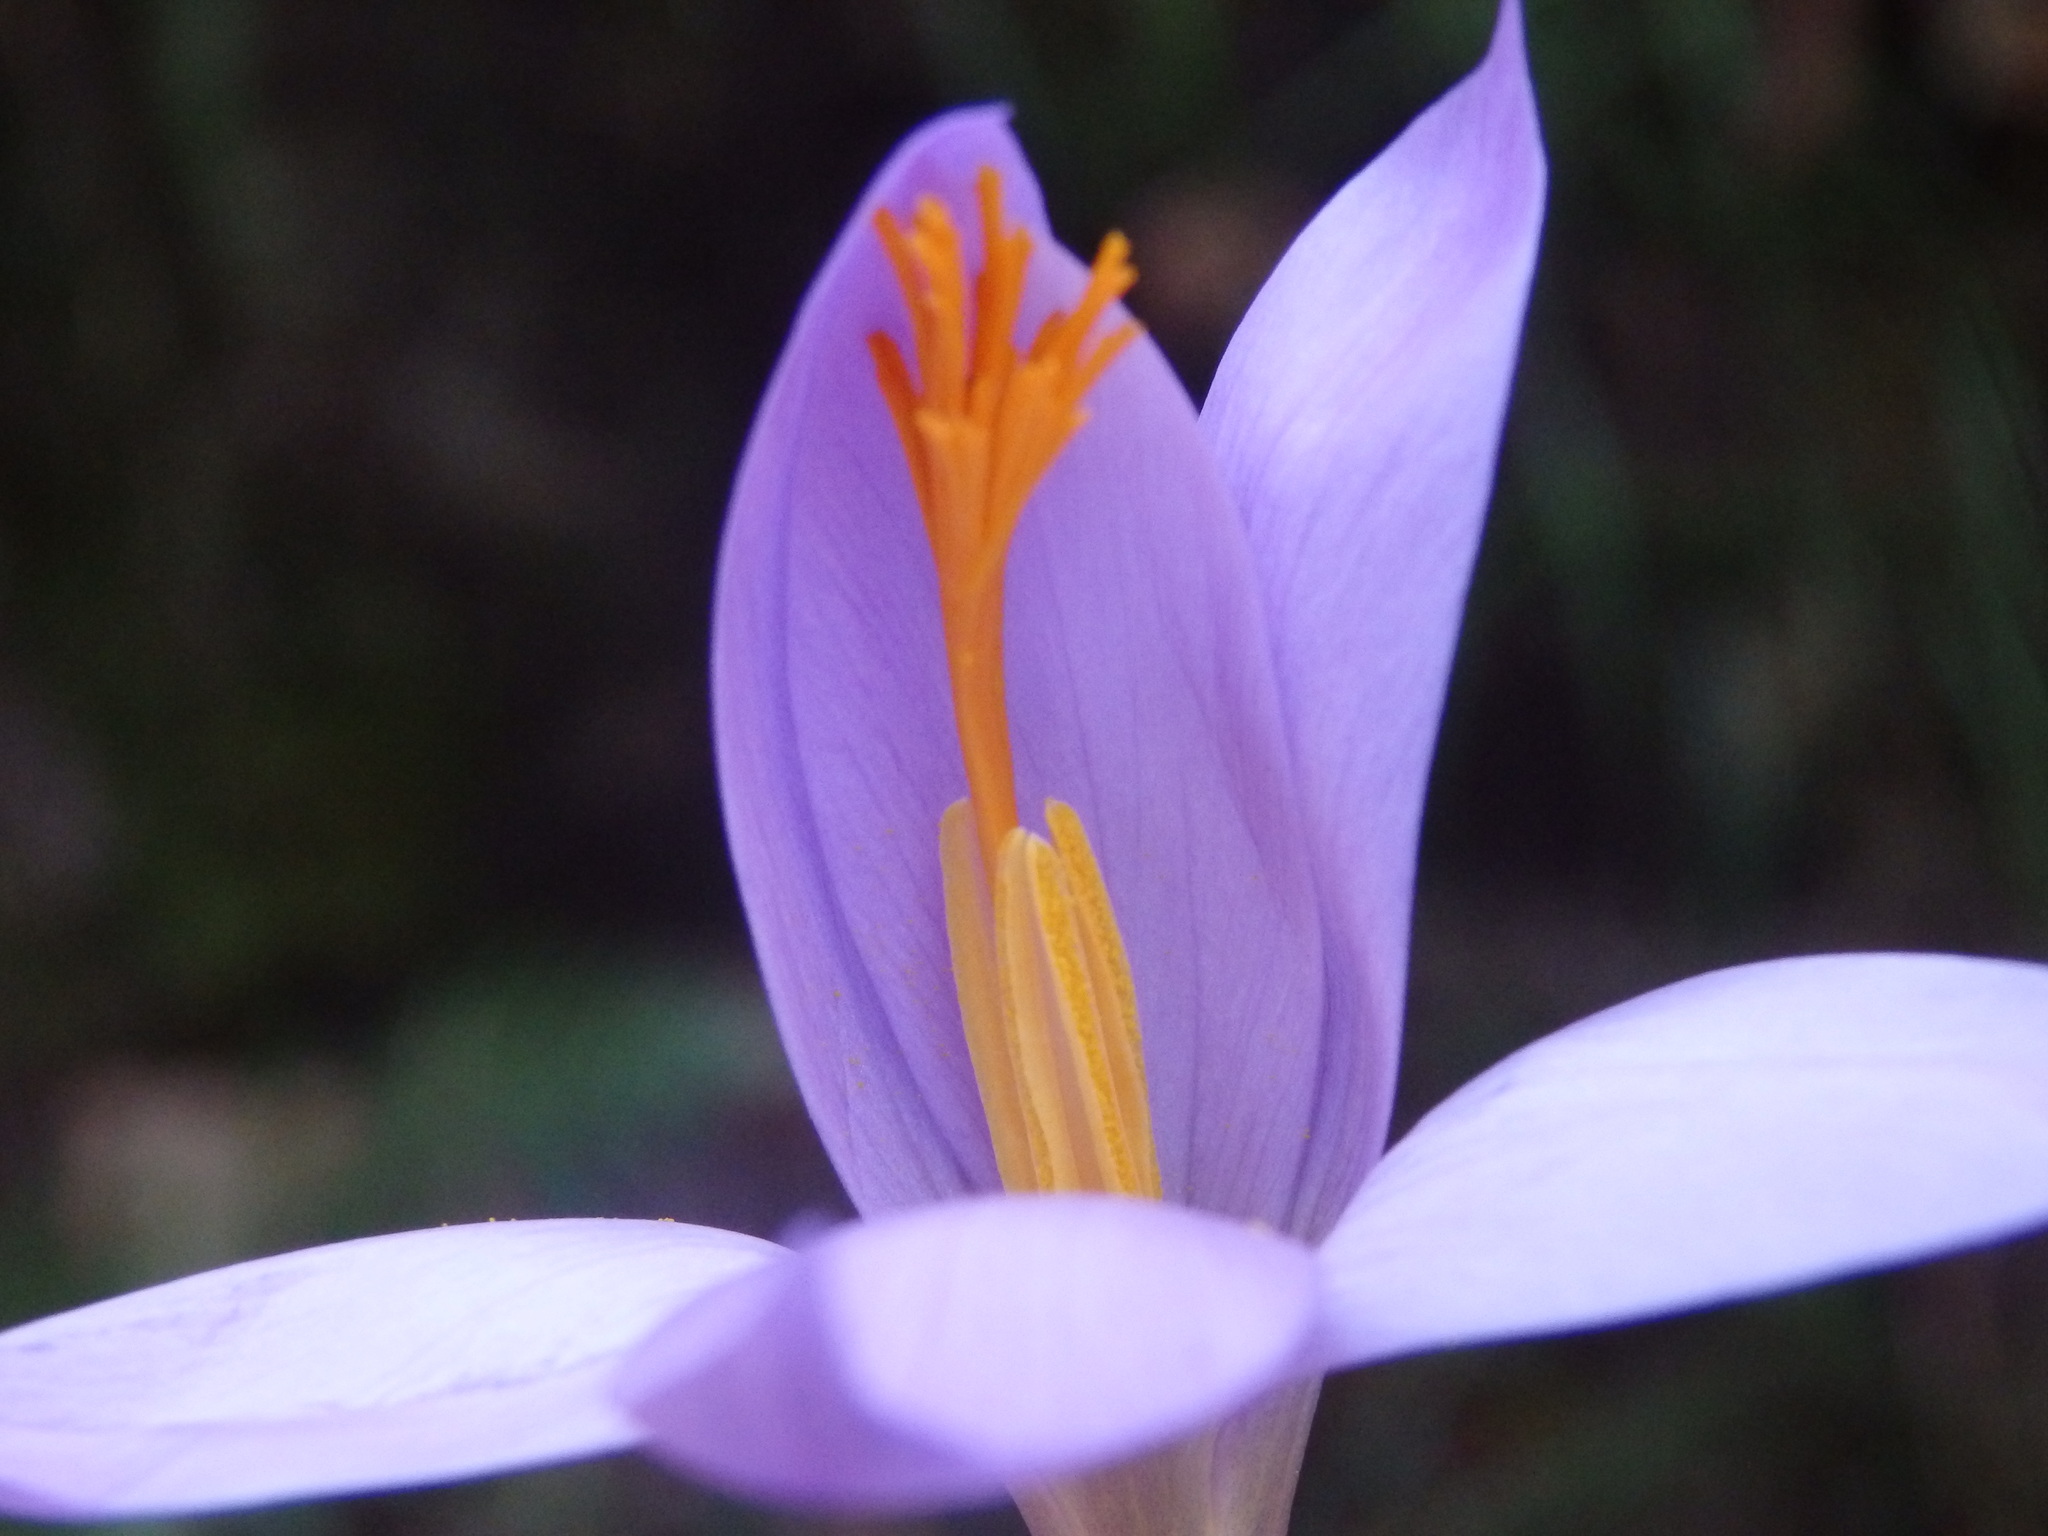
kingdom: Plantae
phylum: Tracheophyta
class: Liliopsida
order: Asparagales
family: Iridaceae
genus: Crocus
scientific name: Crocus serotinus
